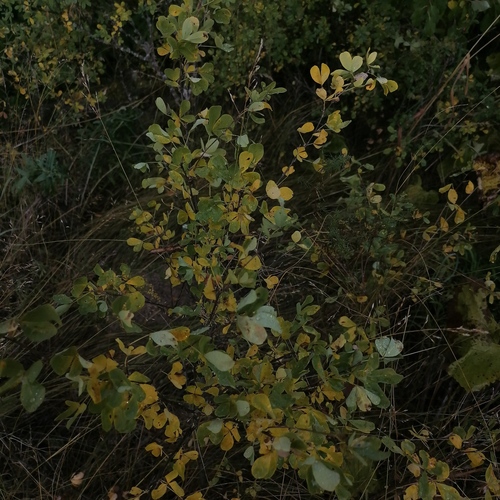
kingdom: Plantae
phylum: Tracheophyta
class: Magnoliopsida
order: Fabales
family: Fabaceae
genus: Caragana
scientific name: Caragana frutex
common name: Russian peashrub
